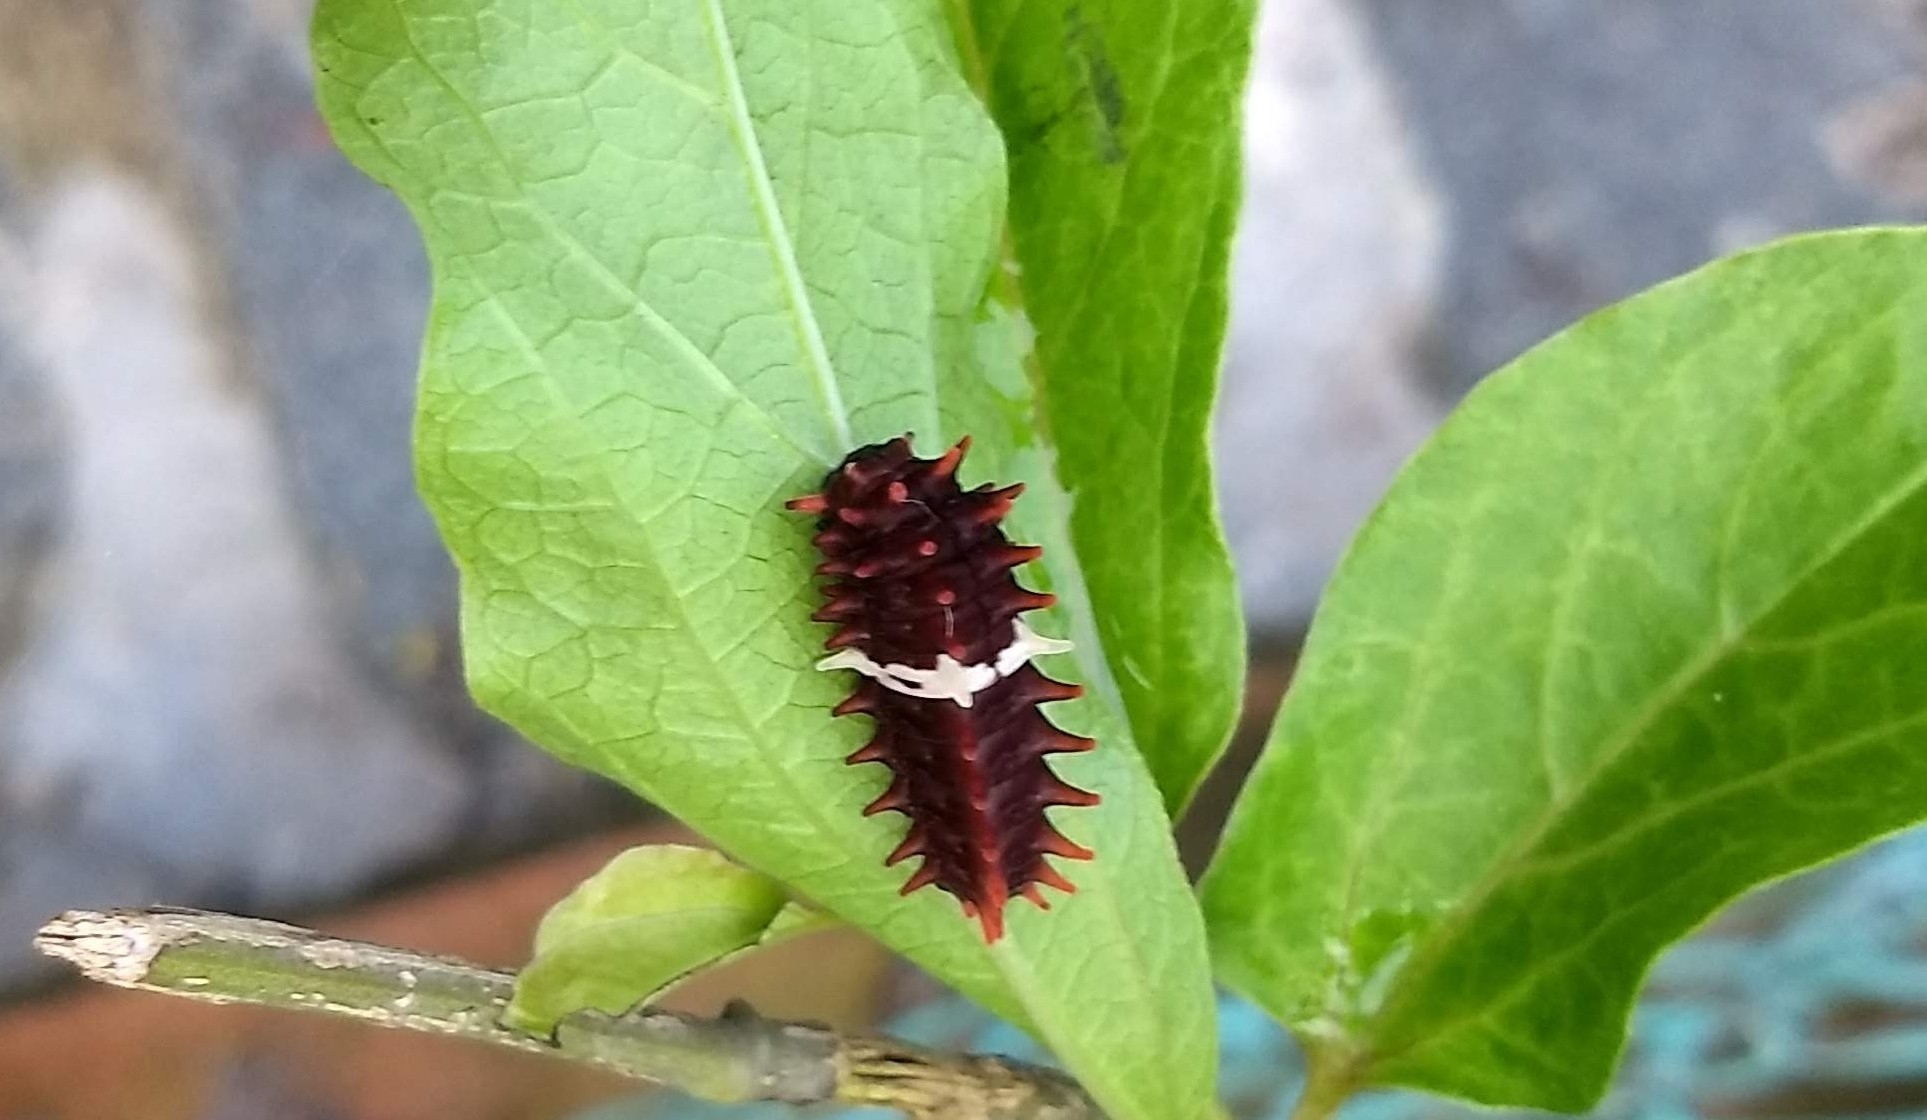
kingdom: Animalia
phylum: Arthropoda
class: Insecta
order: Lepidoptera
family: Papilionidae
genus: Pachliopta
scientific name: Pachliopta aristolochiae
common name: Common rose
